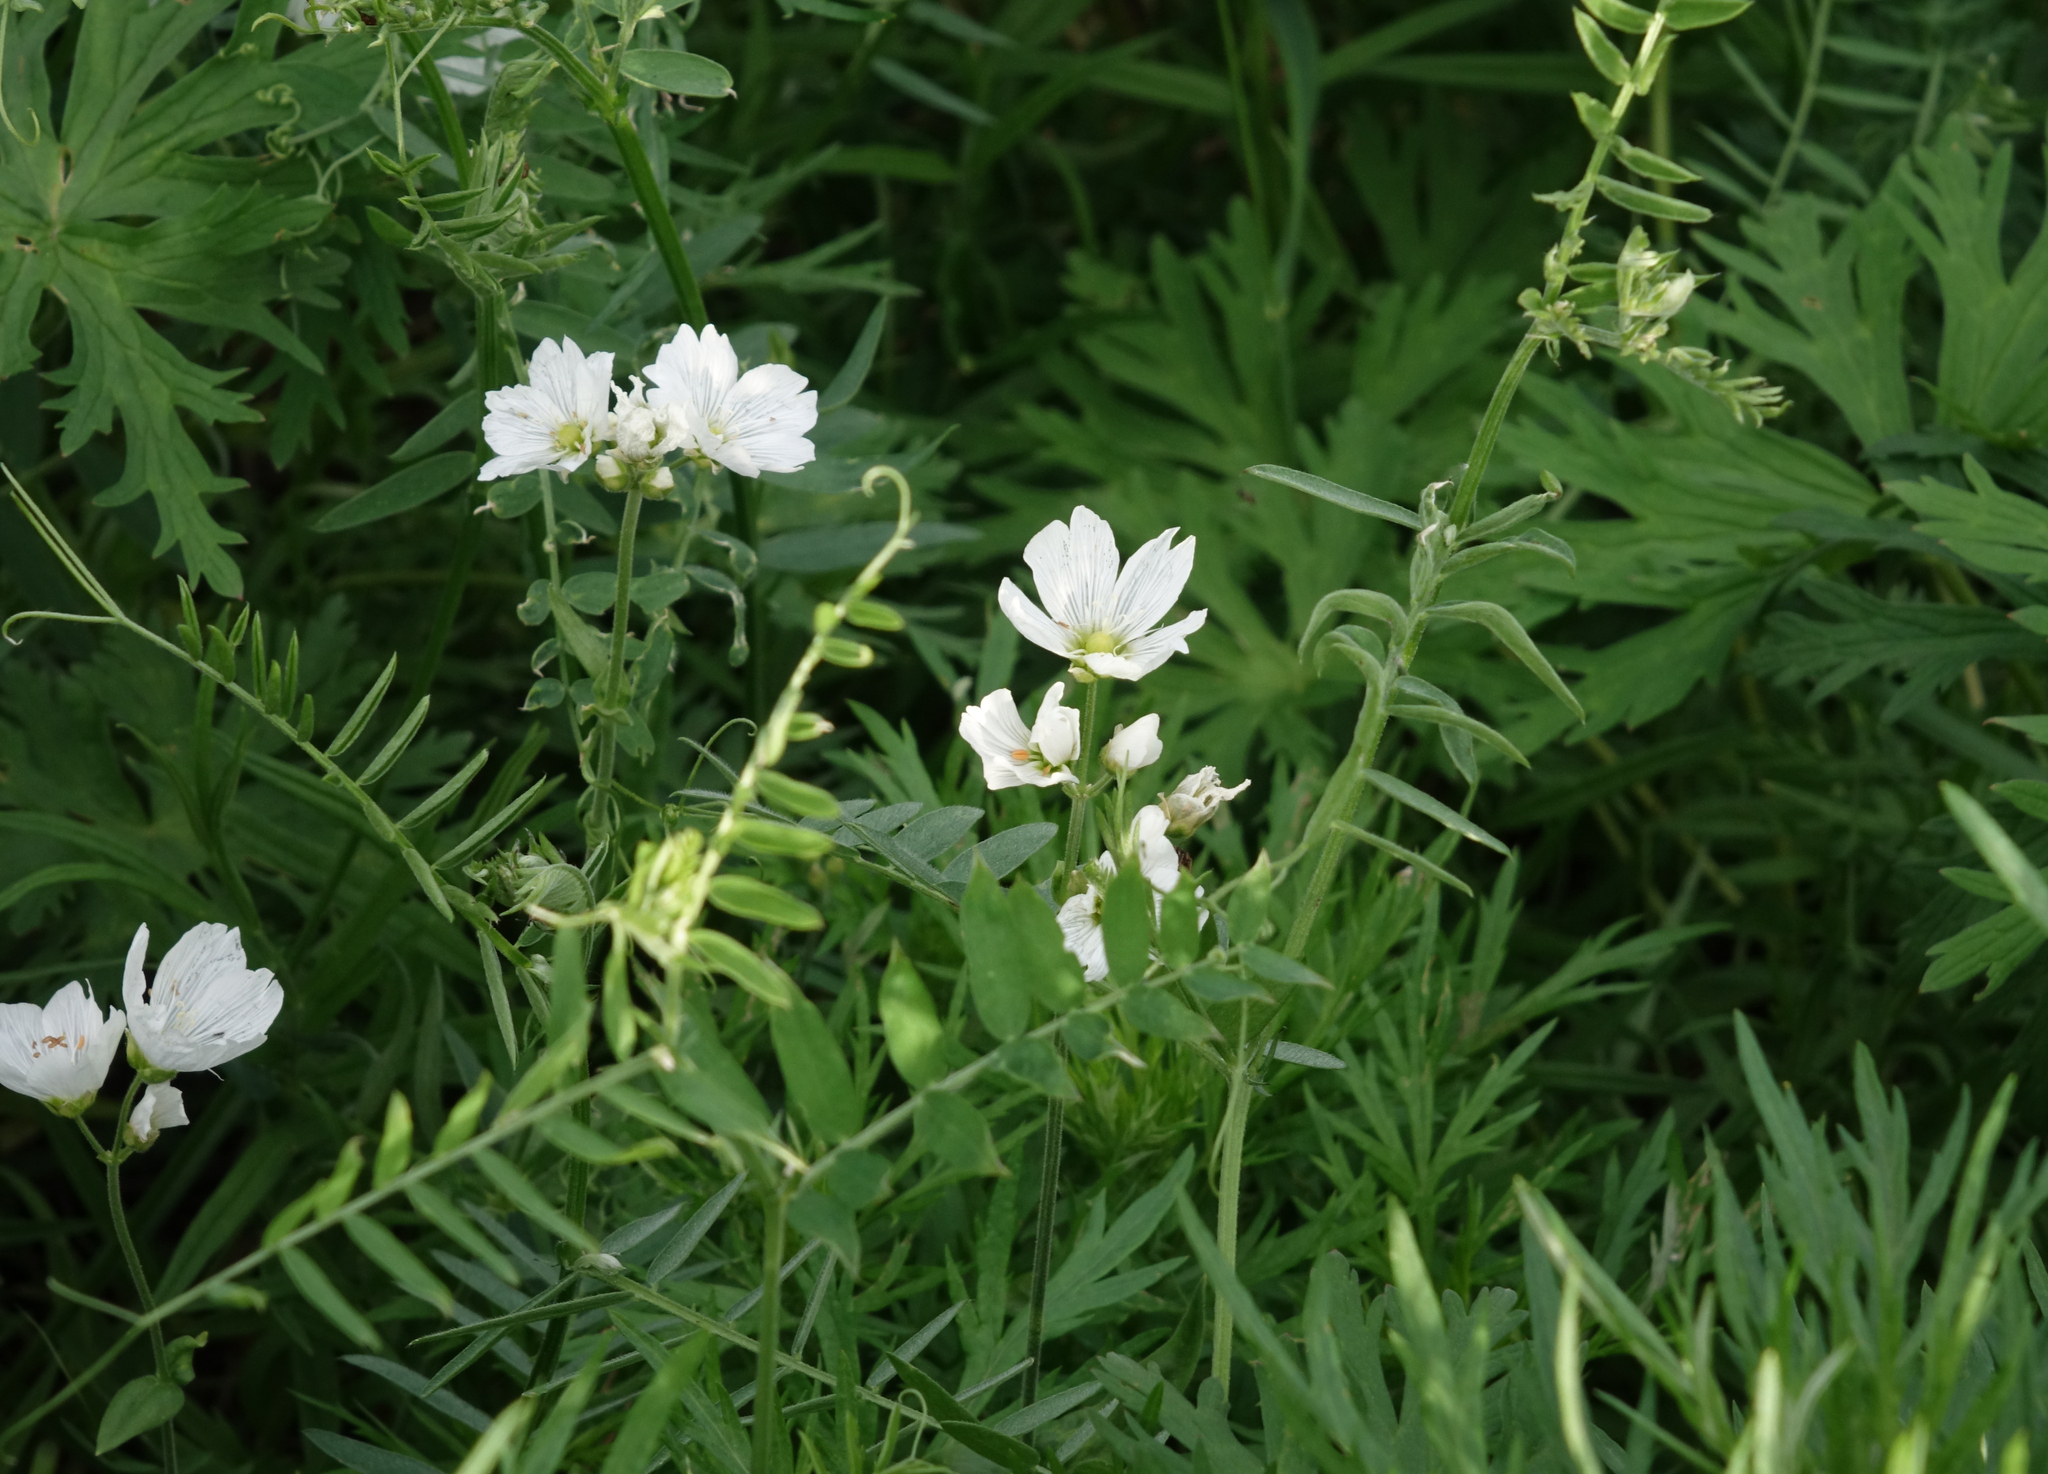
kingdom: Plantae
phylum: Tracheophyta
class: Magnoliopsida
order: Caryophyllales
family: Caryophyllaceae
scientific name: Caryophyllaceae
